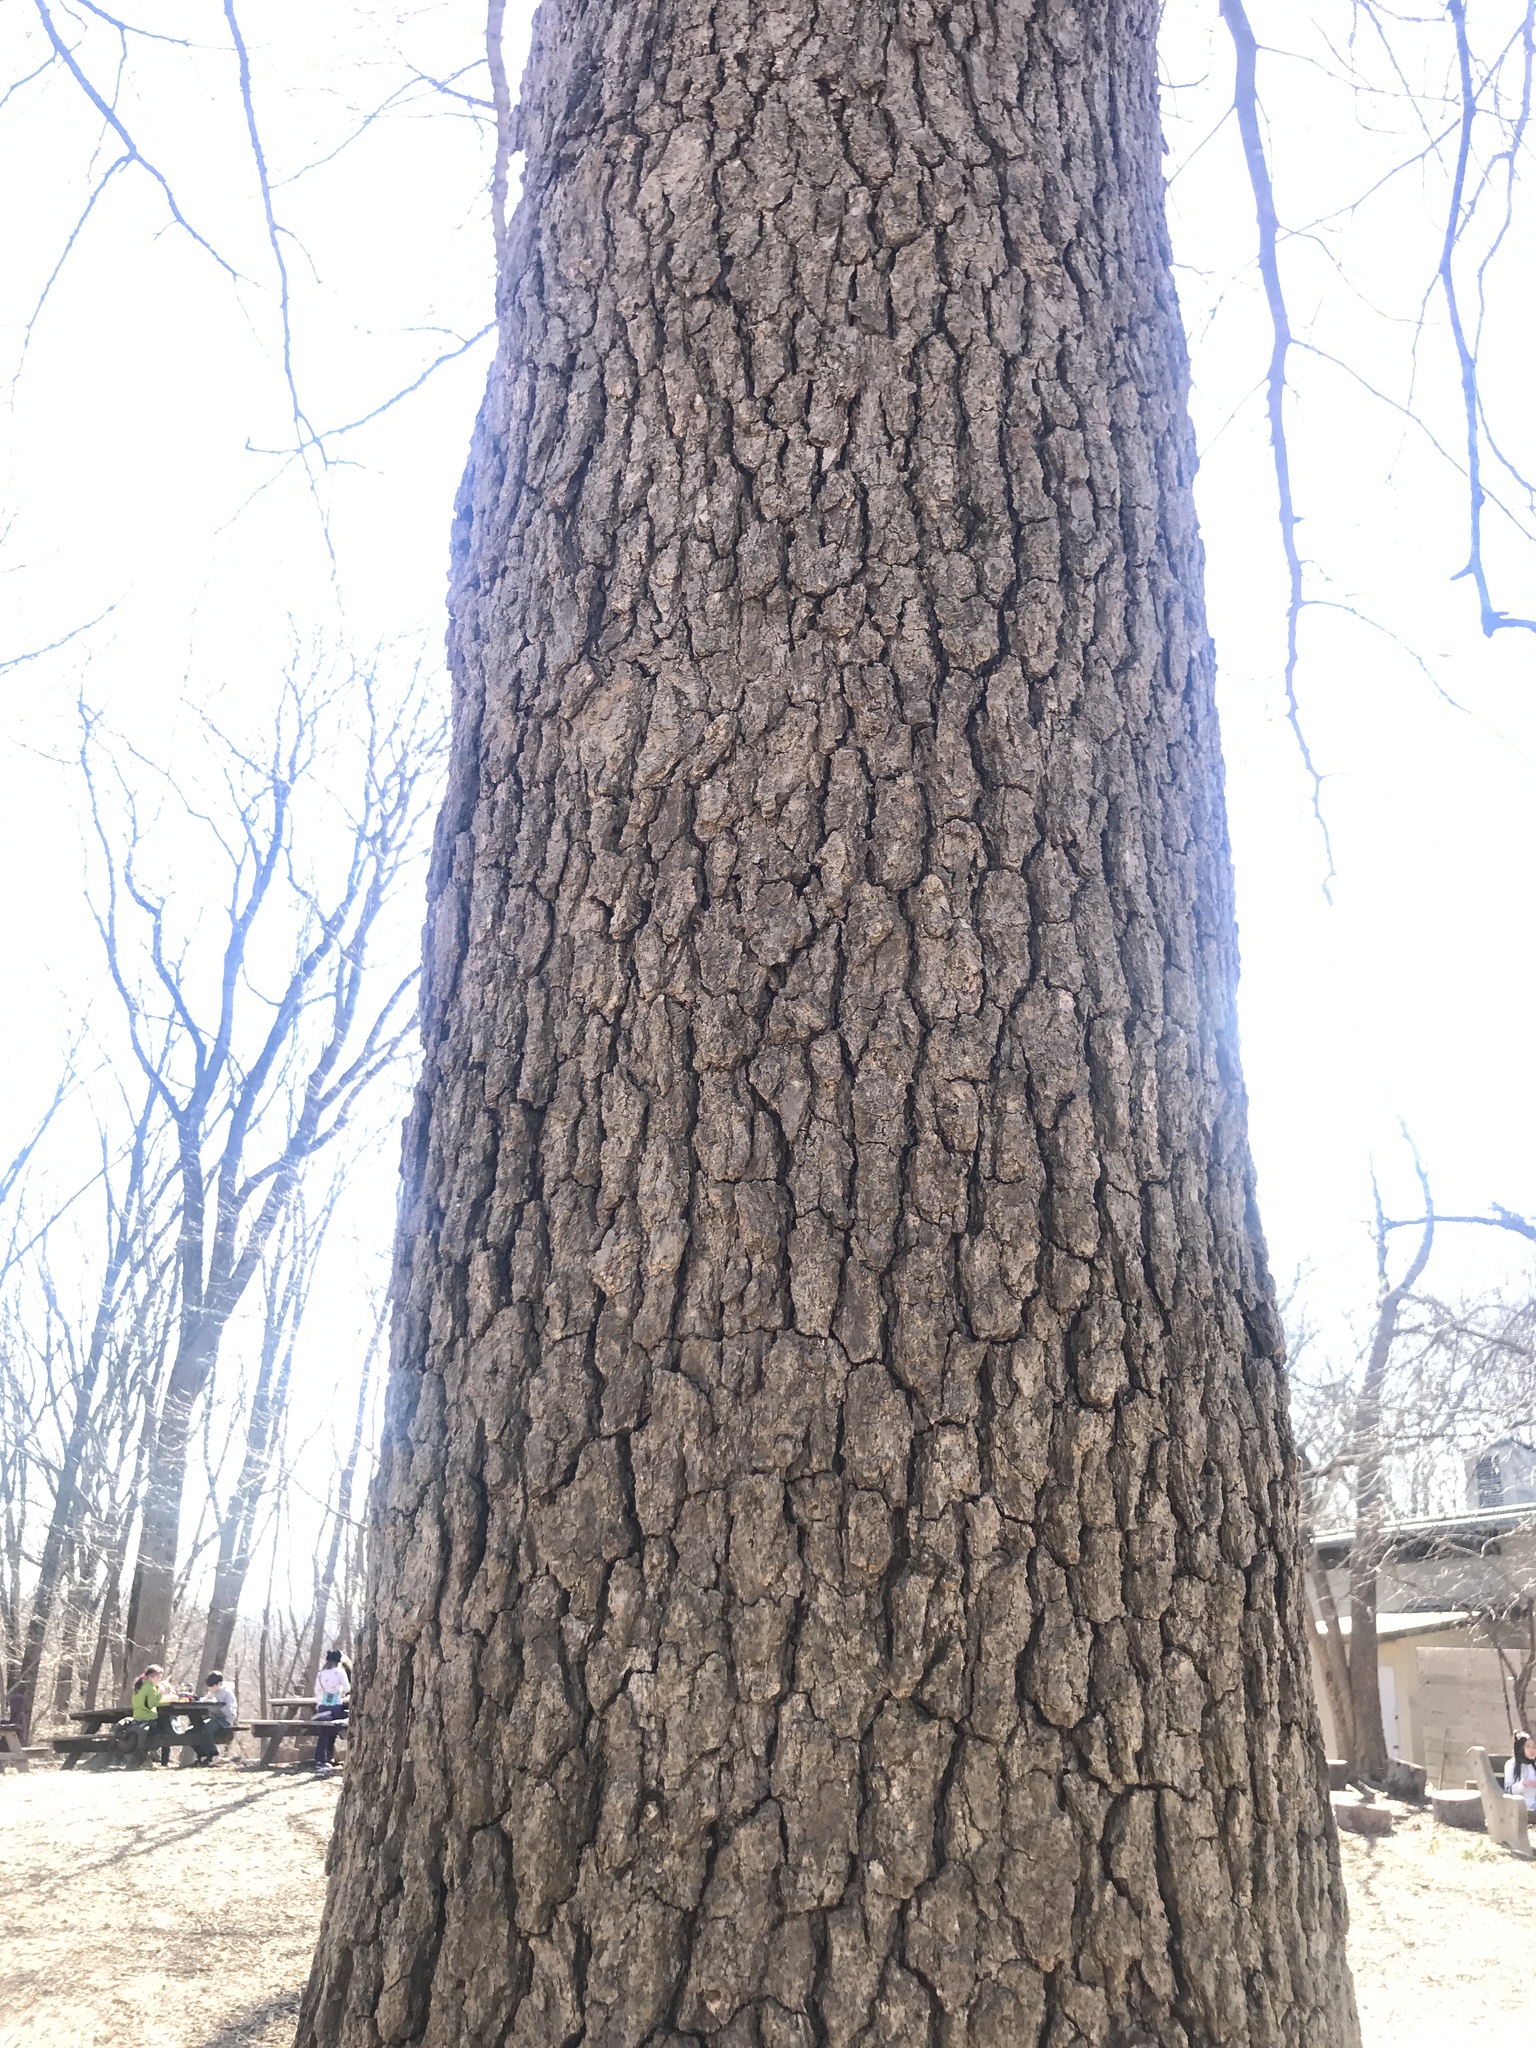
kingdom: Plantae
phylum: Tracheophyta
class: Magnoliopsida
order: Cornales
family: Nyssaceae
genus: Nyssa
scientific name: Nyssa sylvatica
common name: Black tupelo
